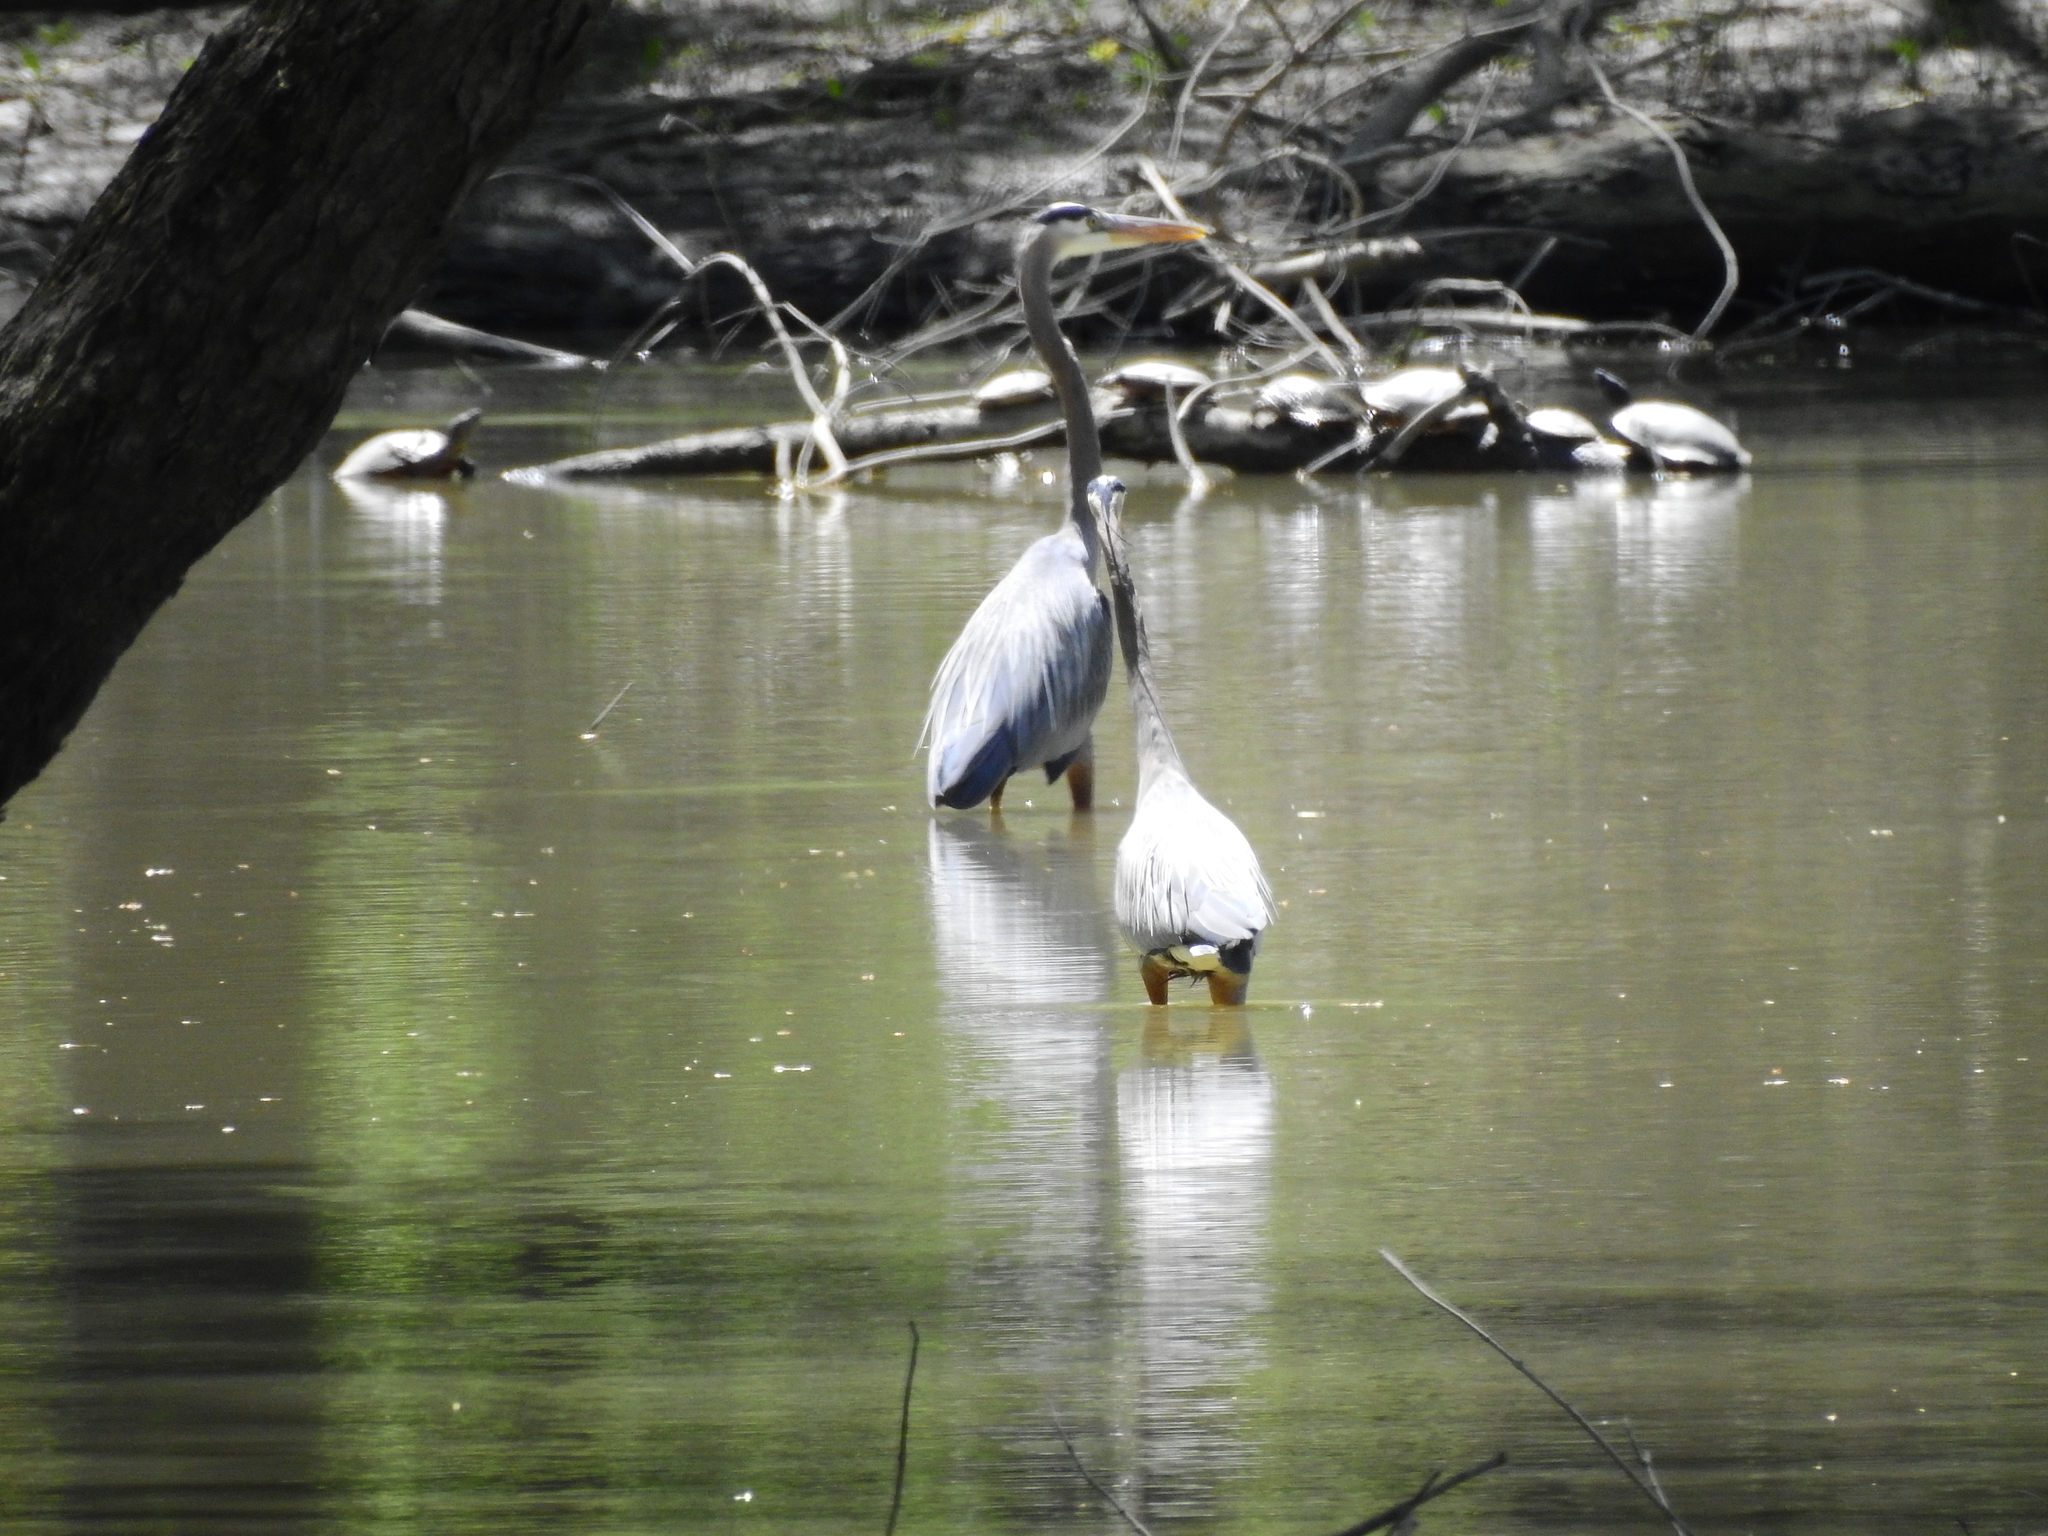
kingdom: Animalia
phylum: Chordata
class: Aves
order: Pelecaniformes
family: Ardeidae
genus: Ardea
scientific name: Ardea herodias
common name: Great blue heron
